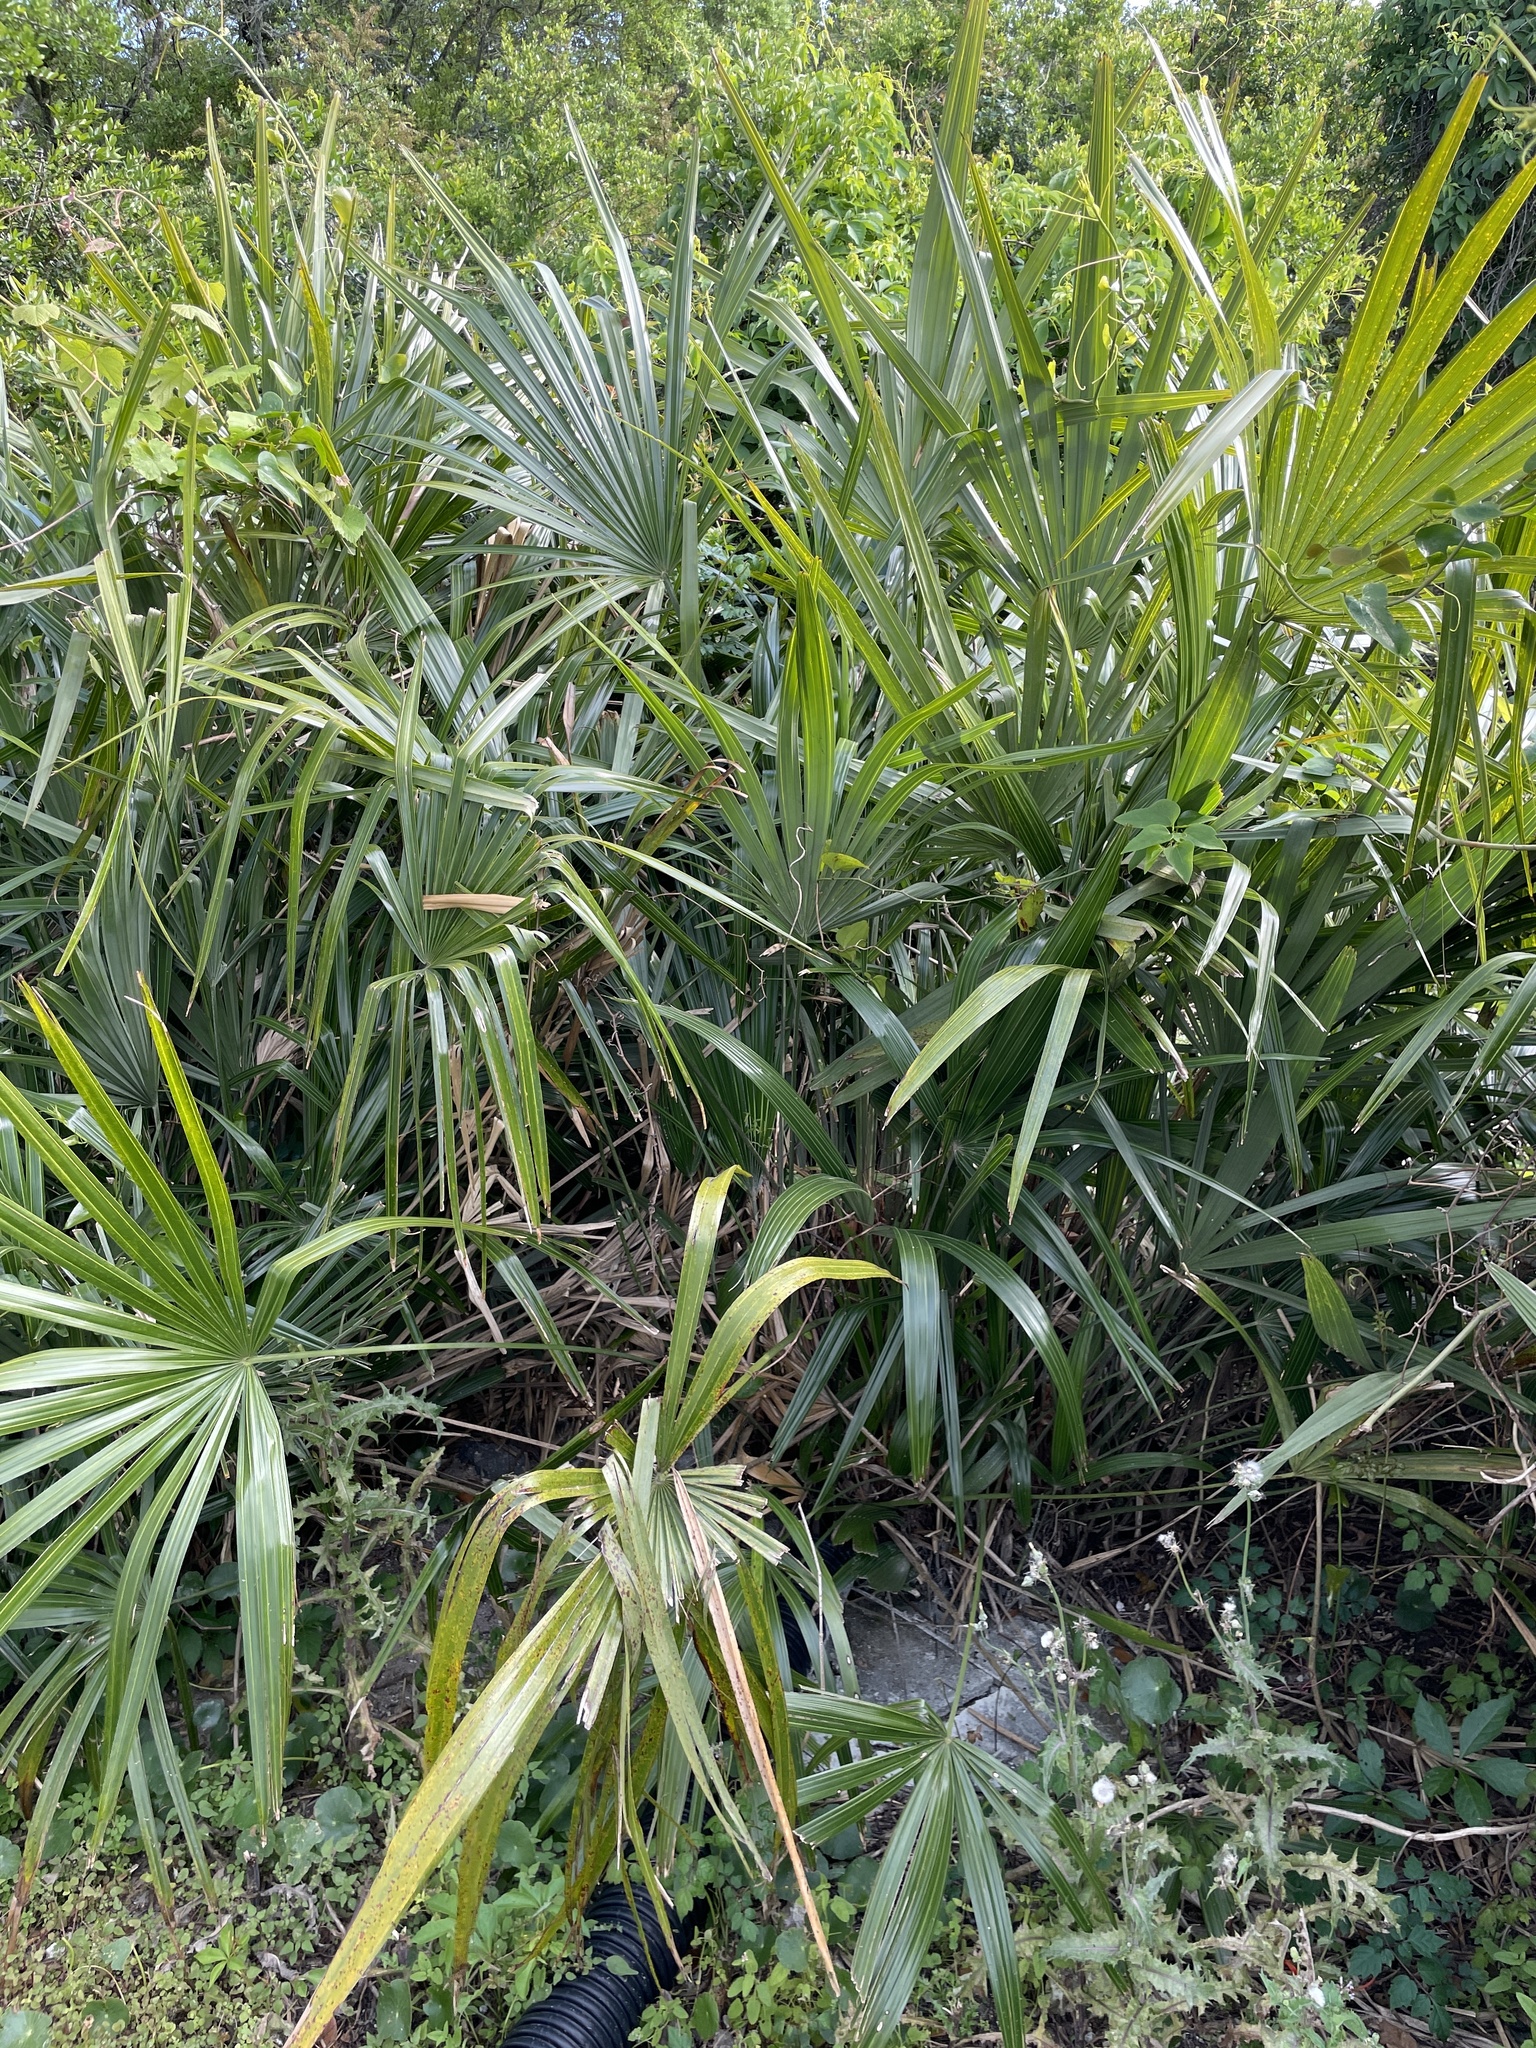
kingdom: Plantae
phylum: Tracheophyta
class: Liliopsida
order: Arecales
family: Arecaceae
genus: Sabal
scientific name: Sabal minor
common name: Dwarf palmetto
